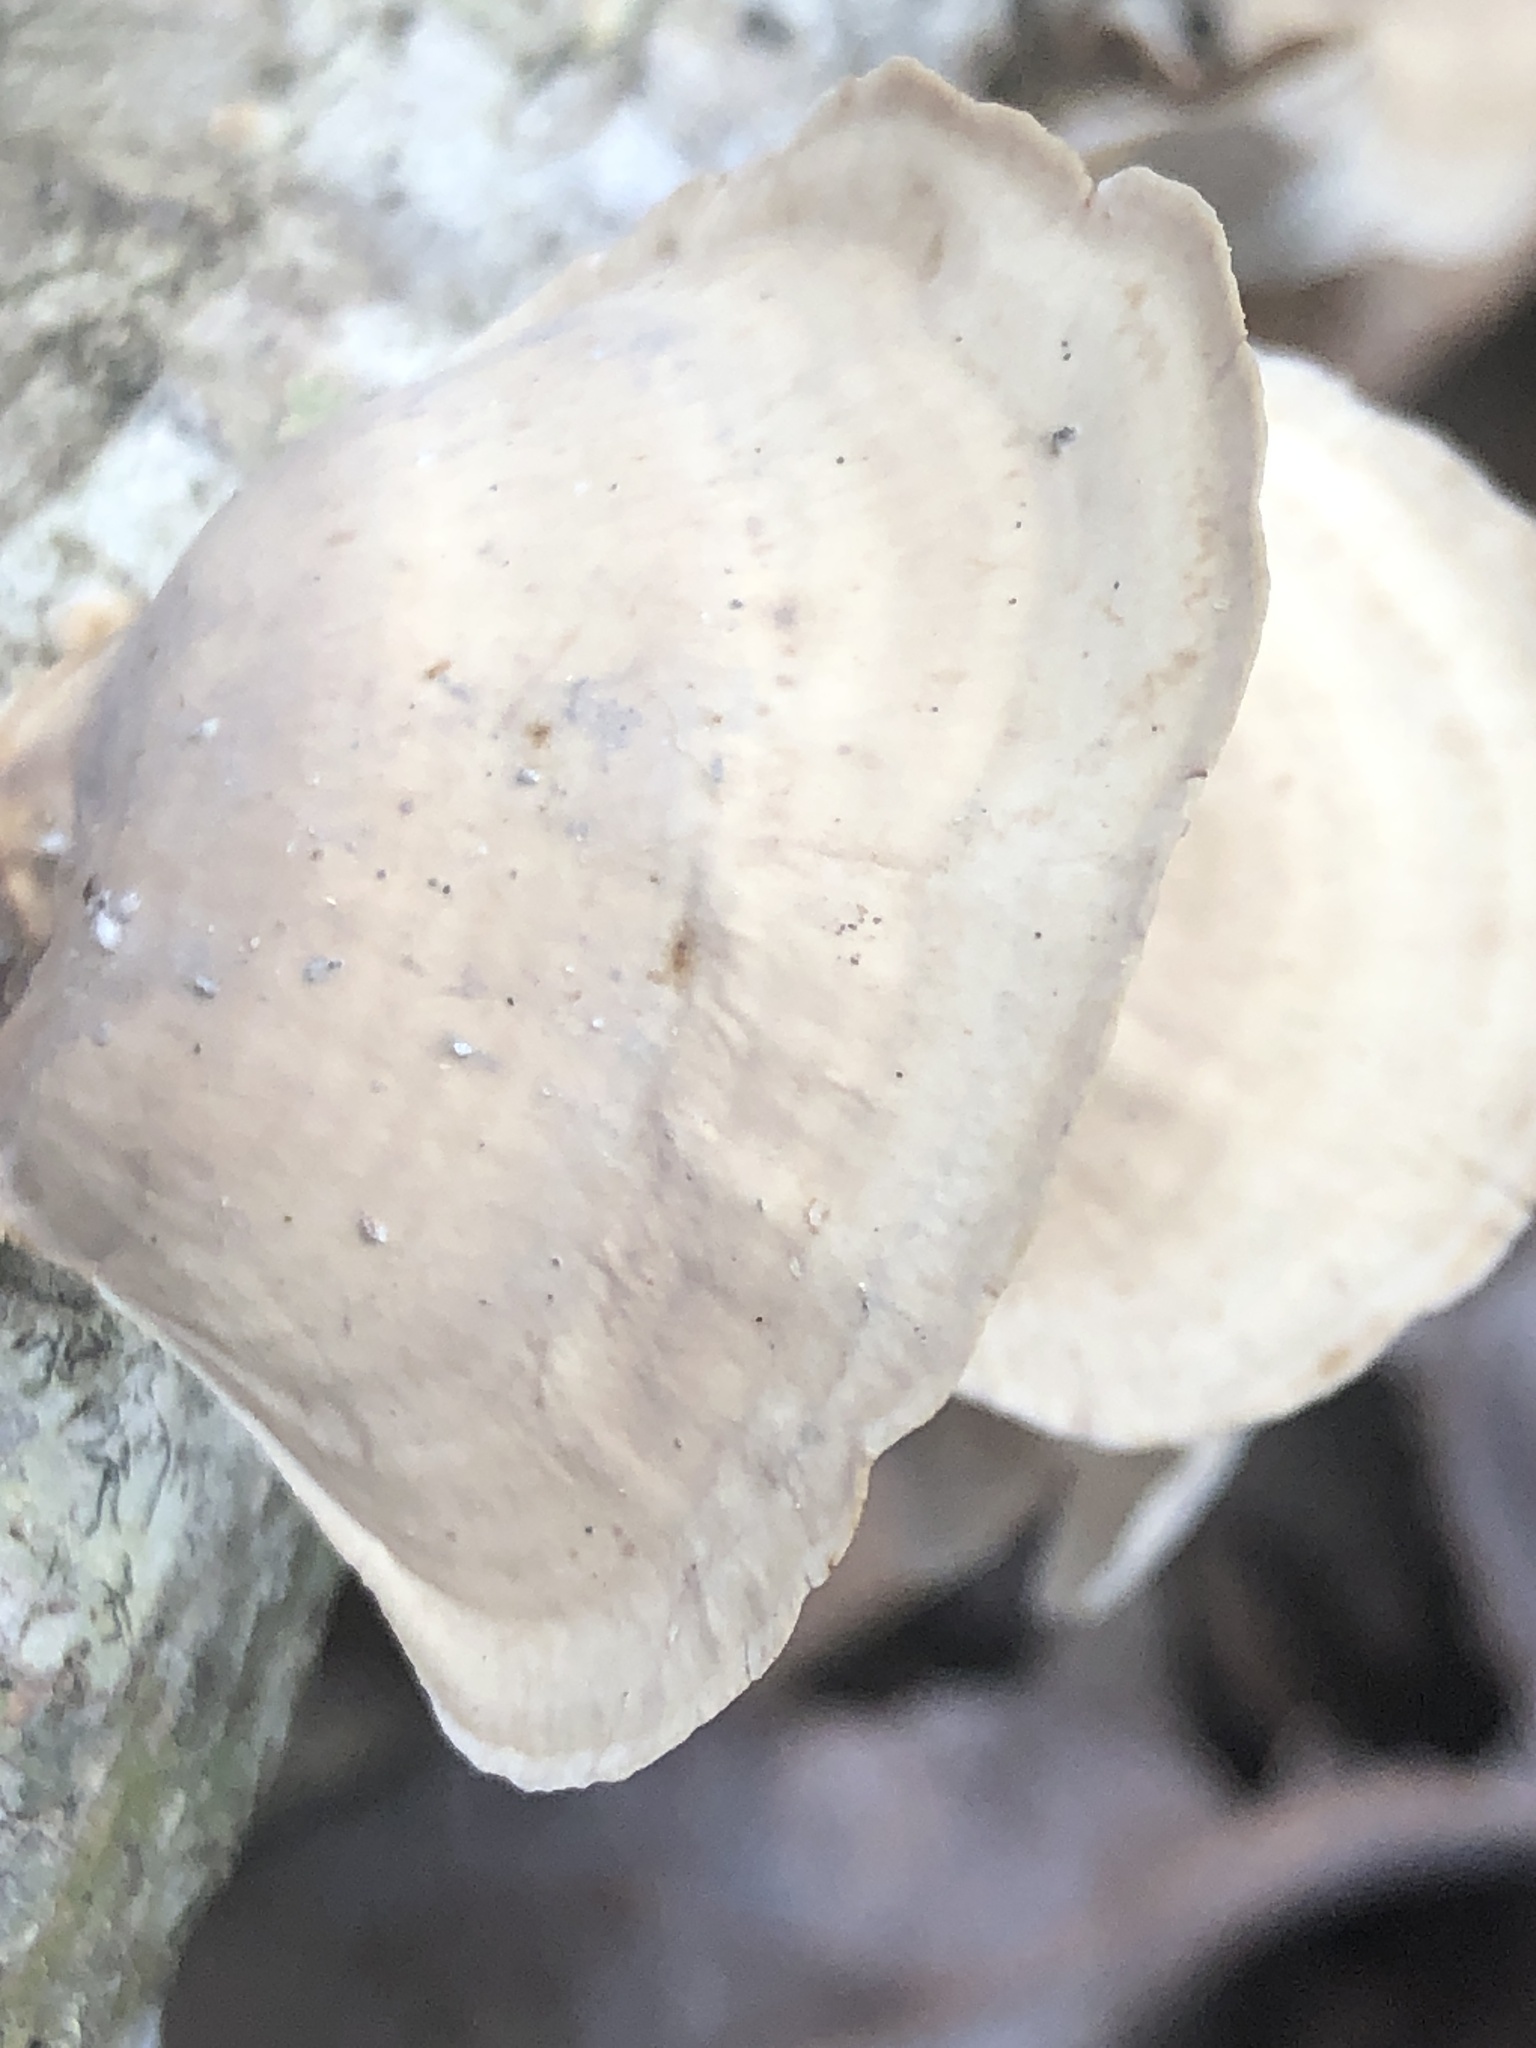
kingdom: Fungi
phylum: Basidiomycota
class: Agaricomycetes
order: Russulales
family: Stereaceae
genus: Stereum
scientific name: Stereum lobatum
